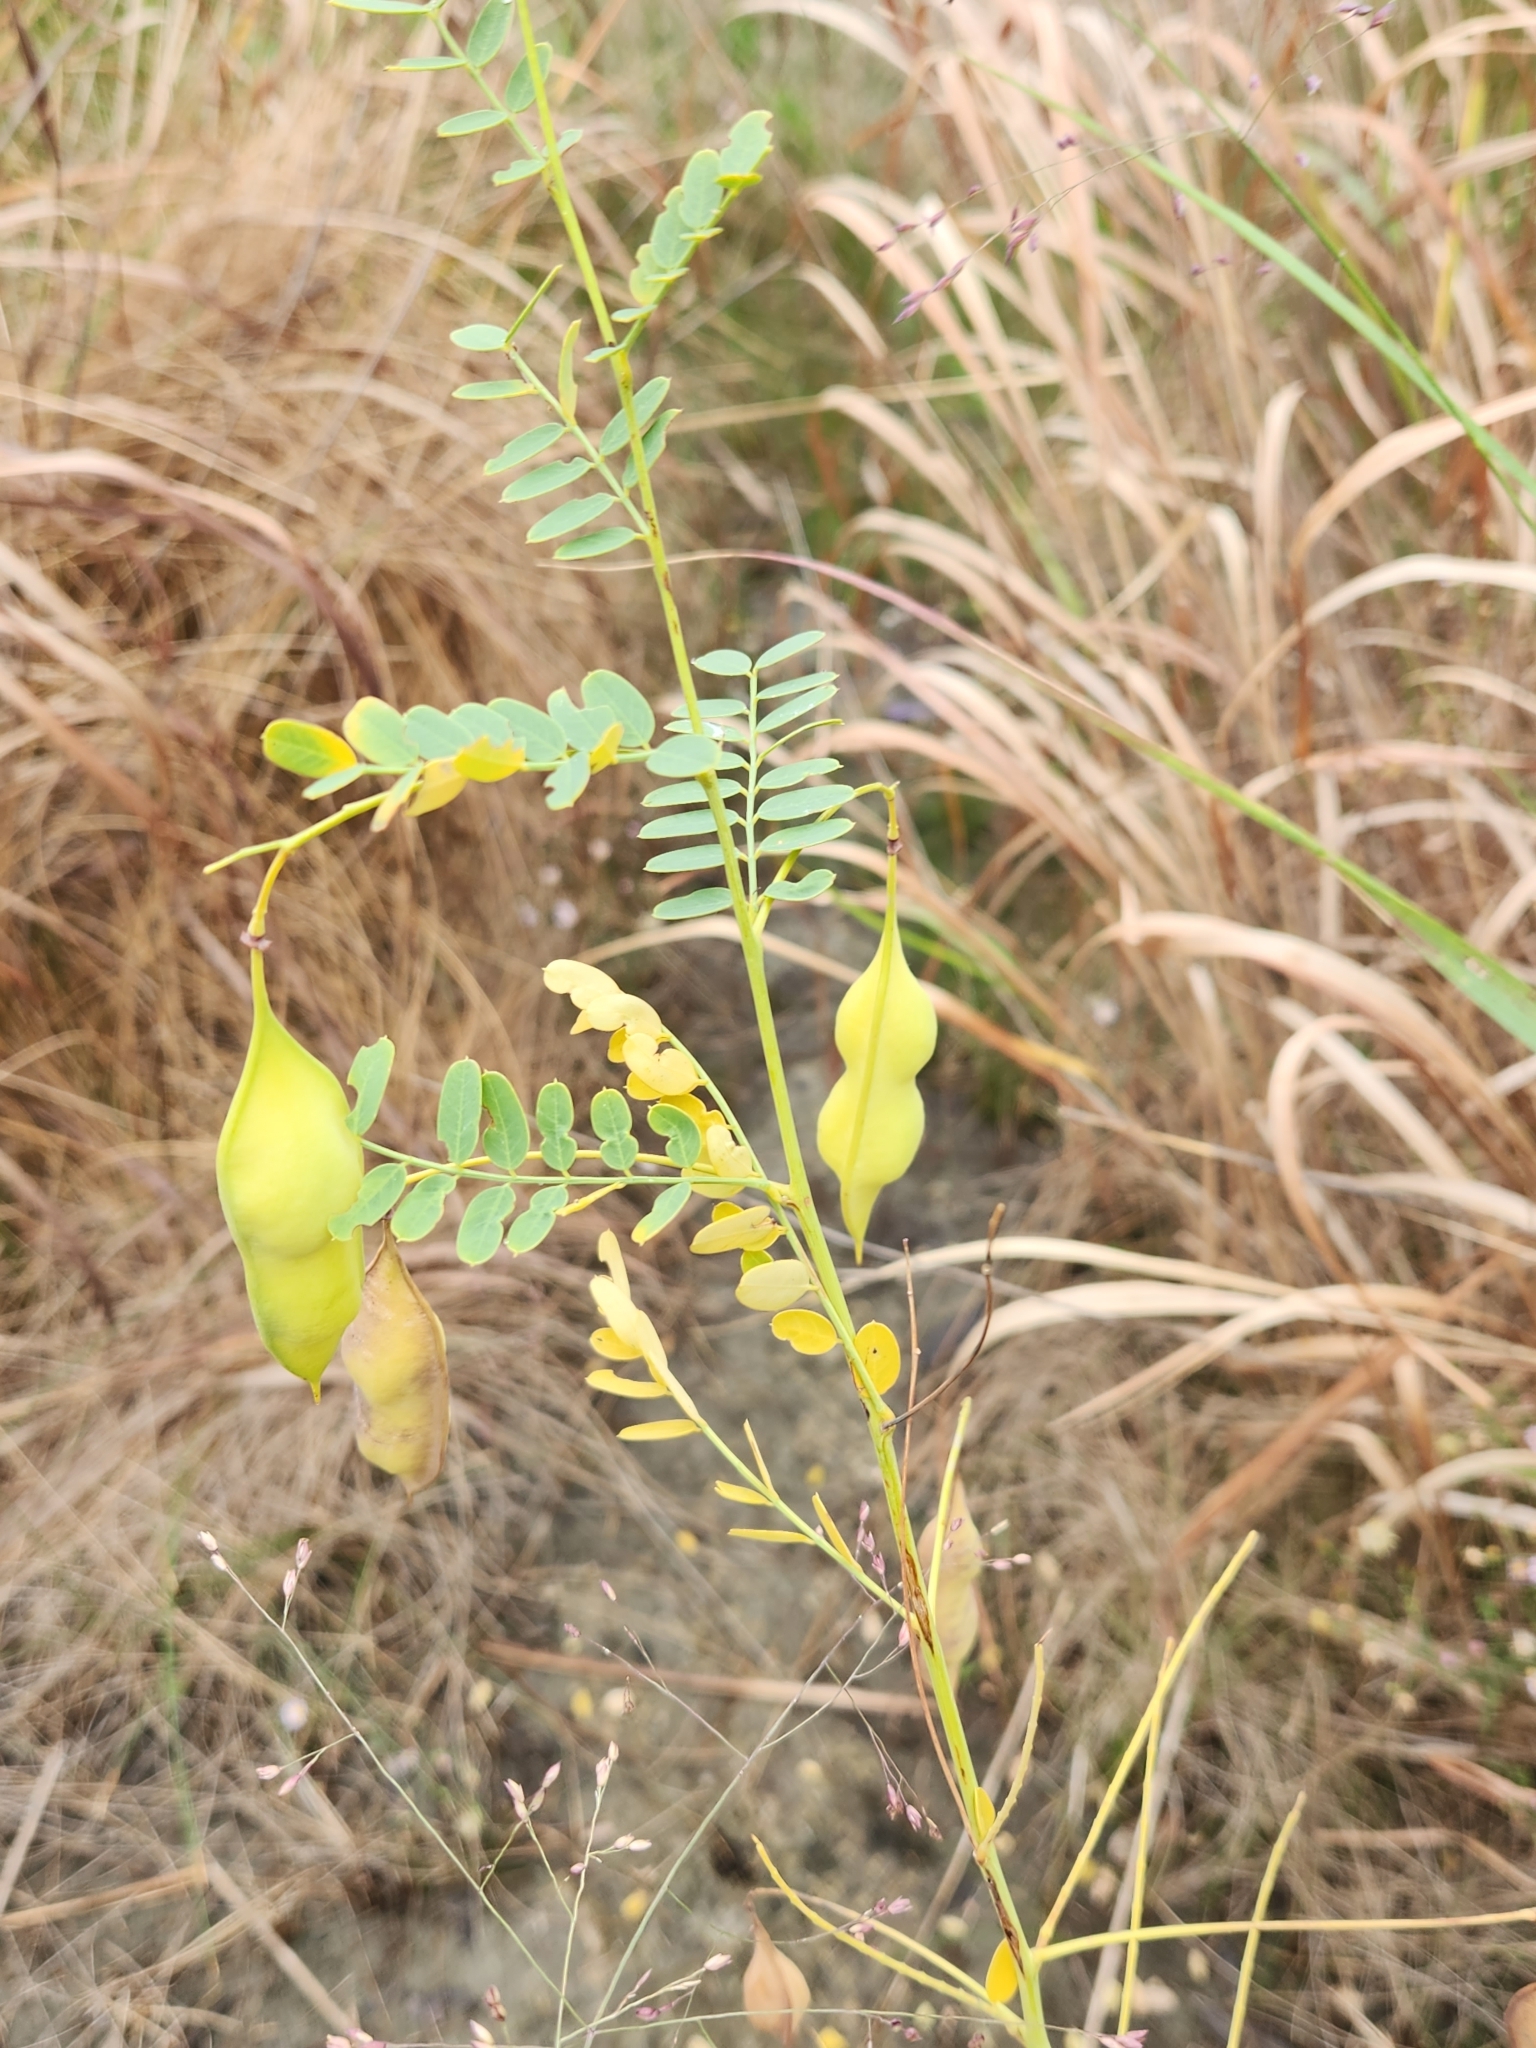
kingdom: Plantae
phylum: Tracheophyta
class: Magnoliopsida
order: Fabales
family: Fabaceae
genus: Sesbania
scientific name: Sesbania vesicaria
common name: Bagpod
